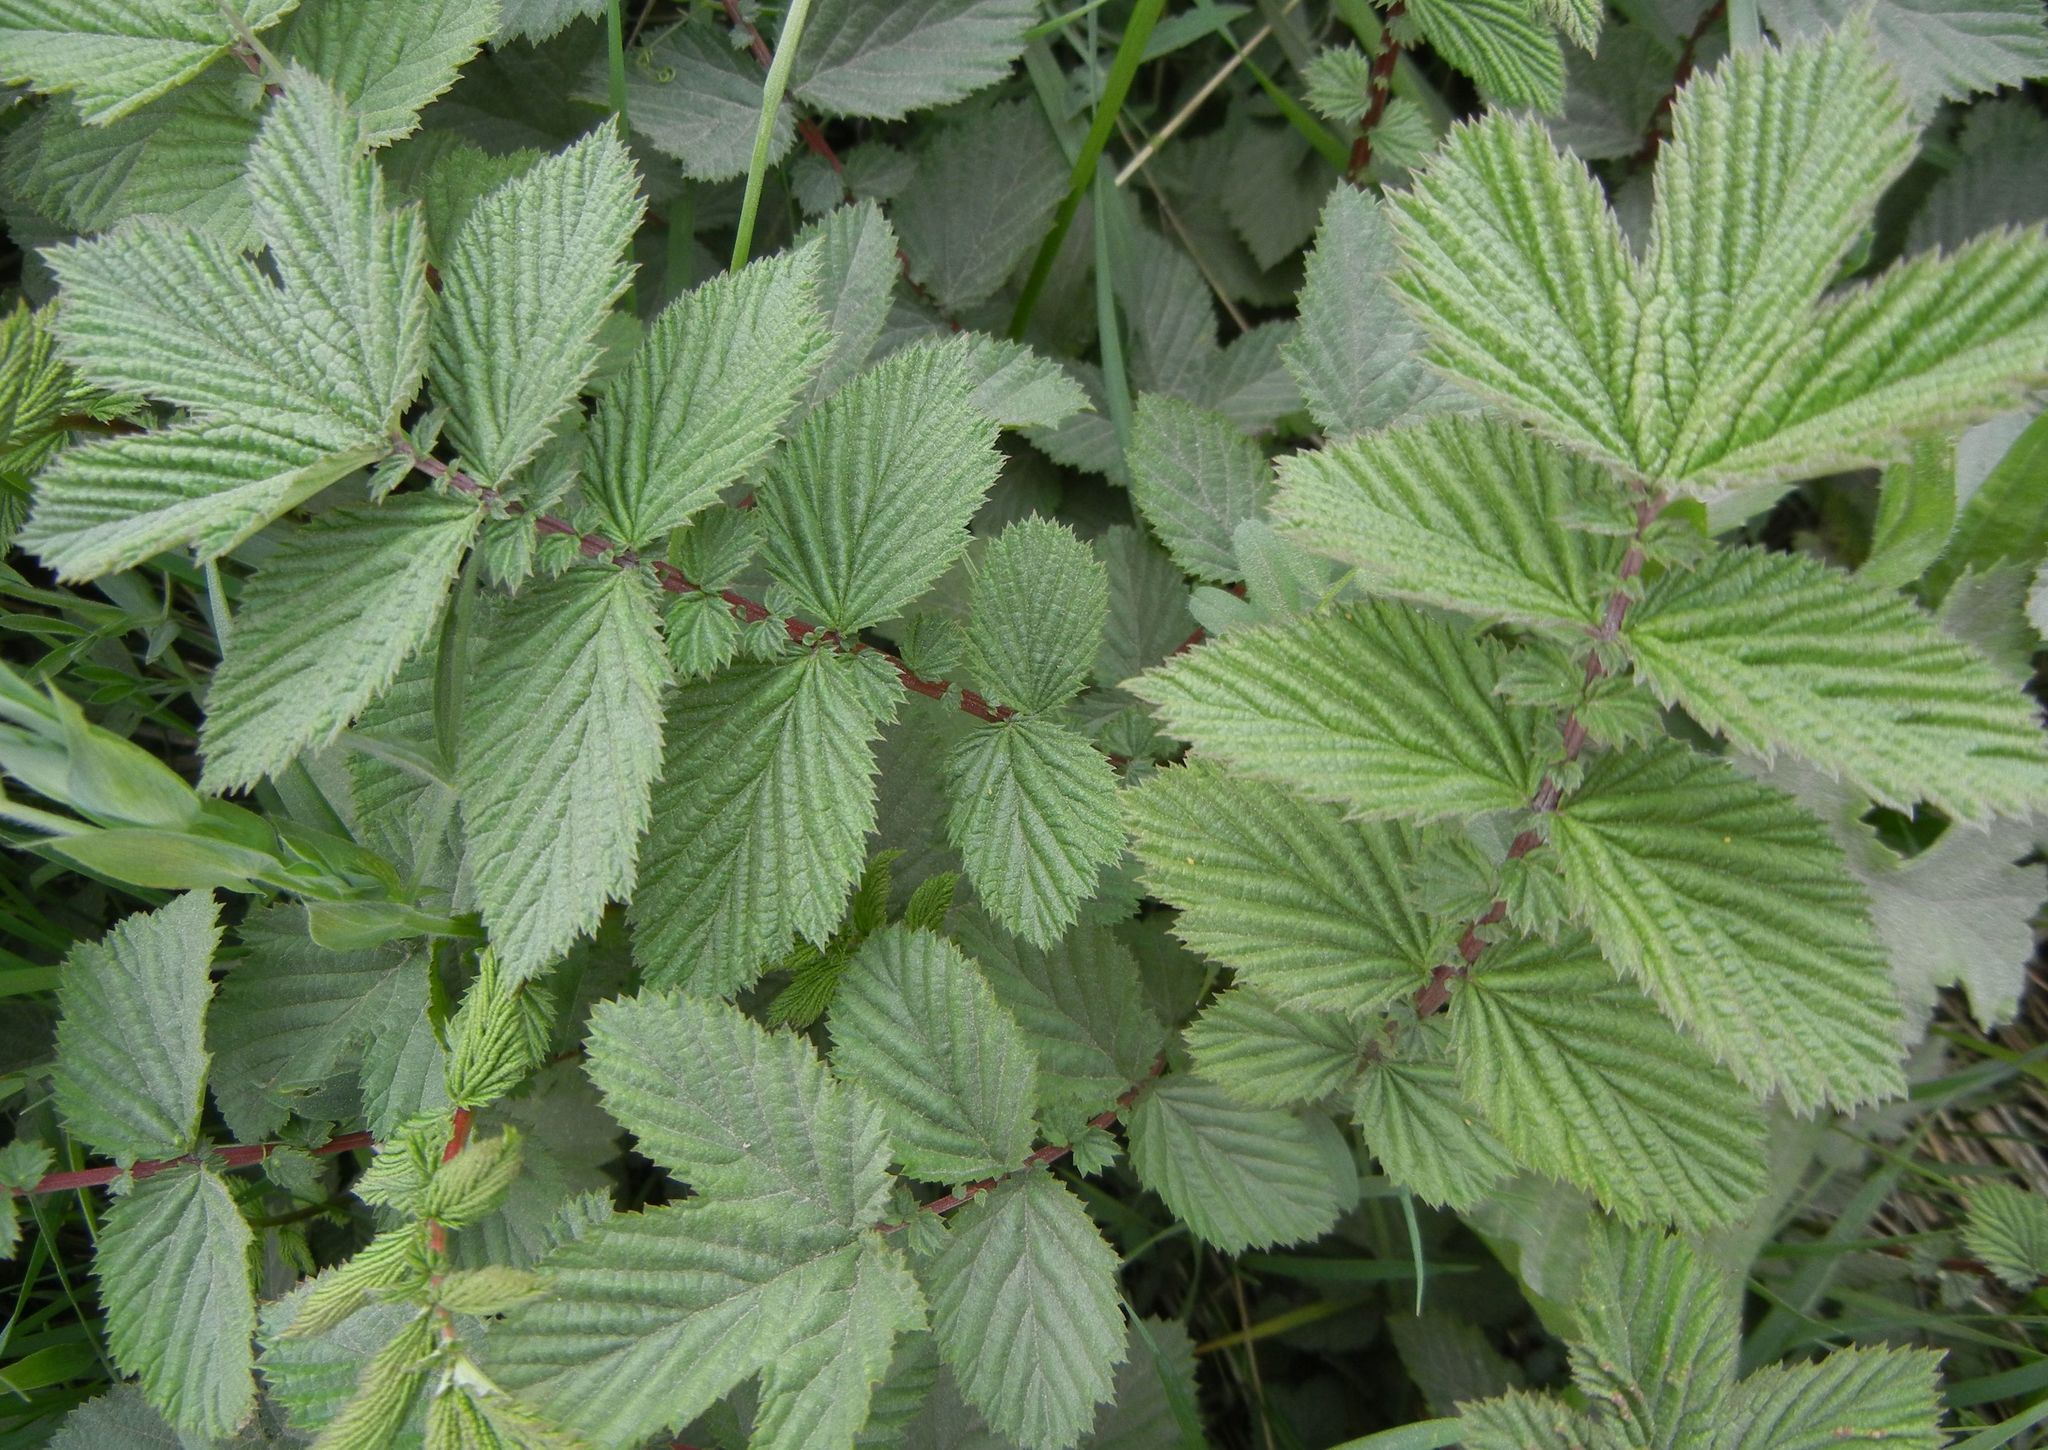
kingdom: Plantae
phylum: Tracheophyta
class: Magnoliopsida
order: Rosales
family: Rosaceae
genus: Filipendula
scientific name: Filipendula ulmaria
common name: Meadowsweet
